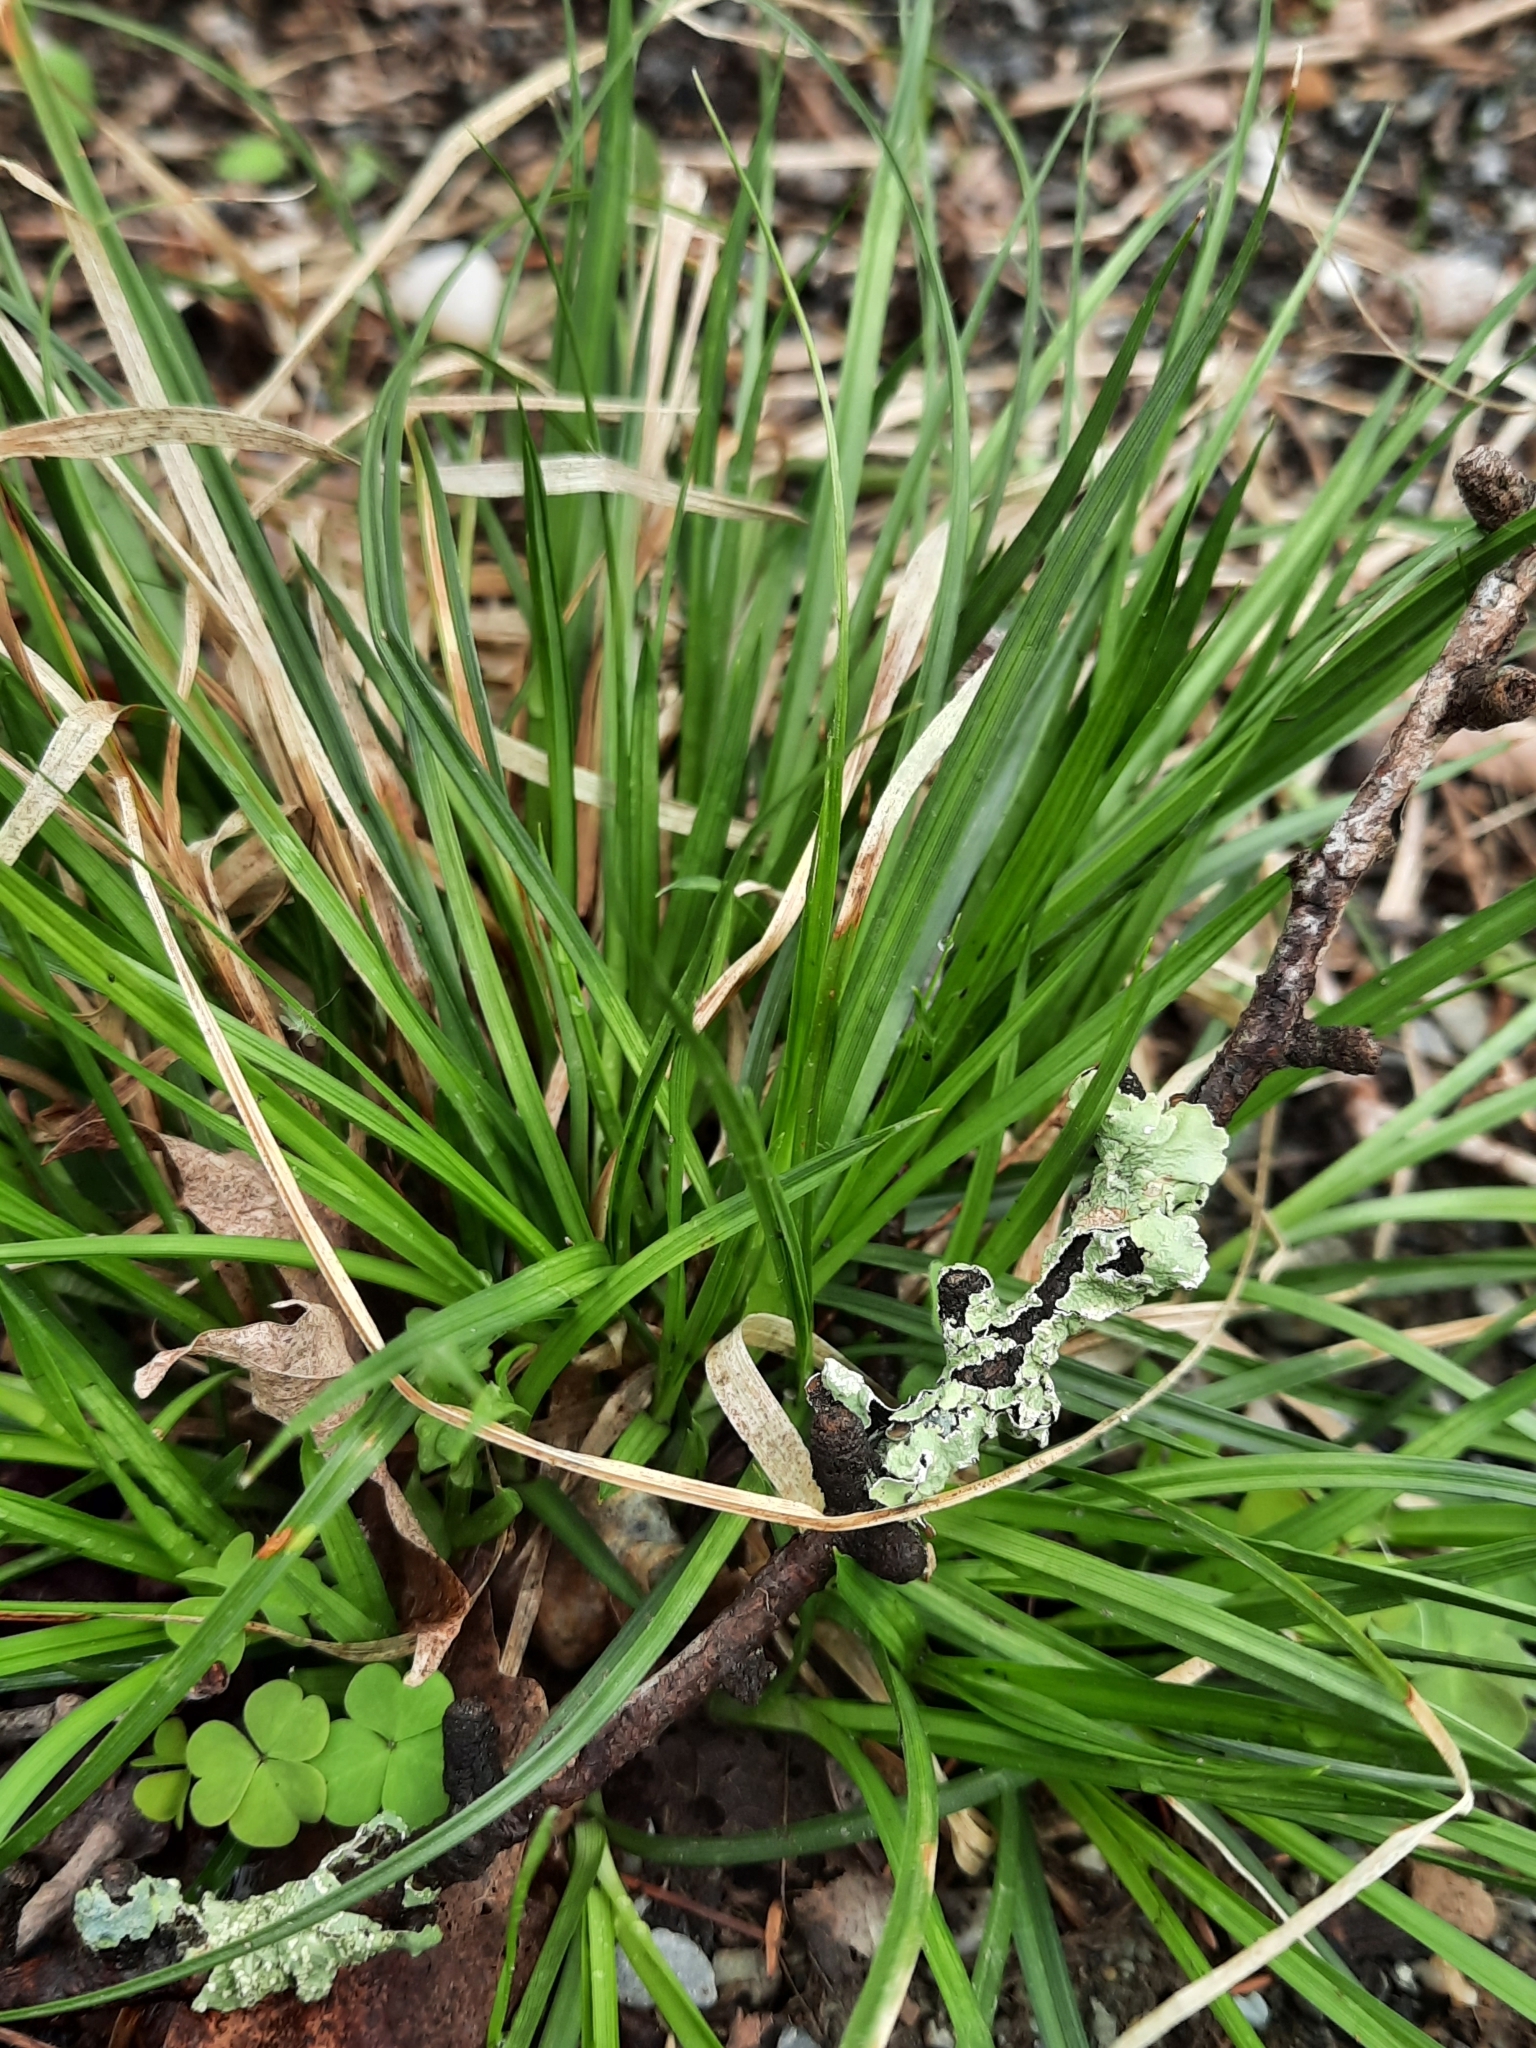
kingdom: Plantae
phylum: Tracheophyta
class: Liliopsida
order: Poales
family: Cyperaceae
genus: Carex
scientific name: Carex pensylvanica
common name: Common oak sedge
